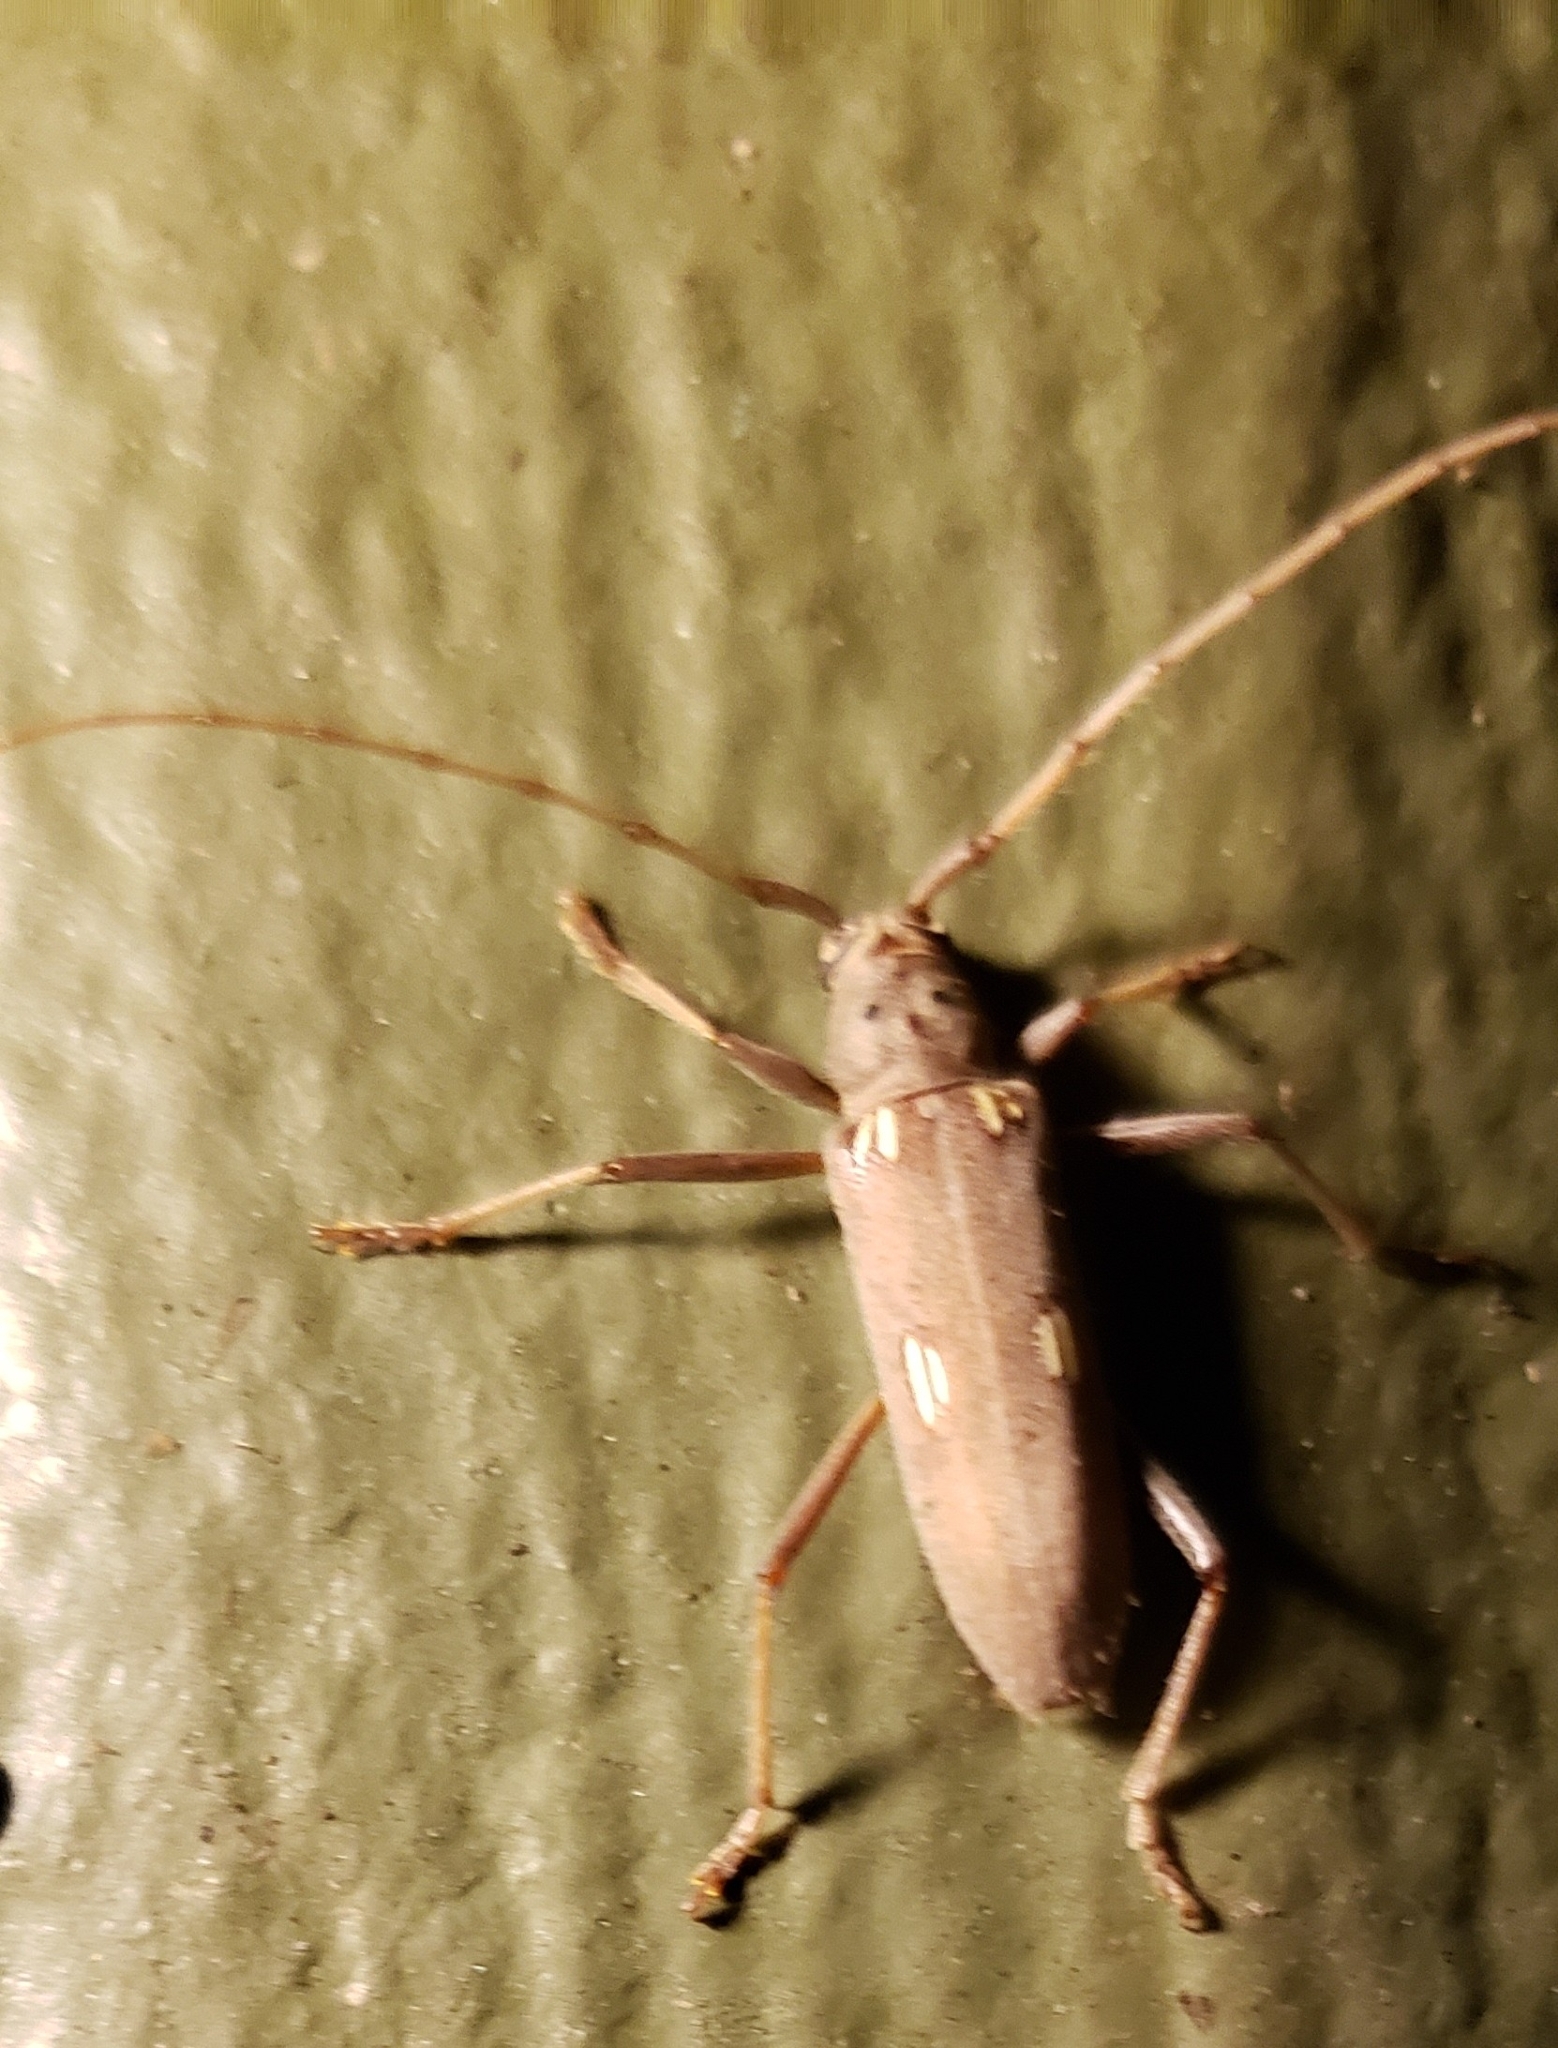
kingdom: Animalia
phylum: Arthropoda
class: Insecta
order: Coleoptera
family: Cerambycidae
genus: Eburia
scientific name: Eburia quadrigeminata
